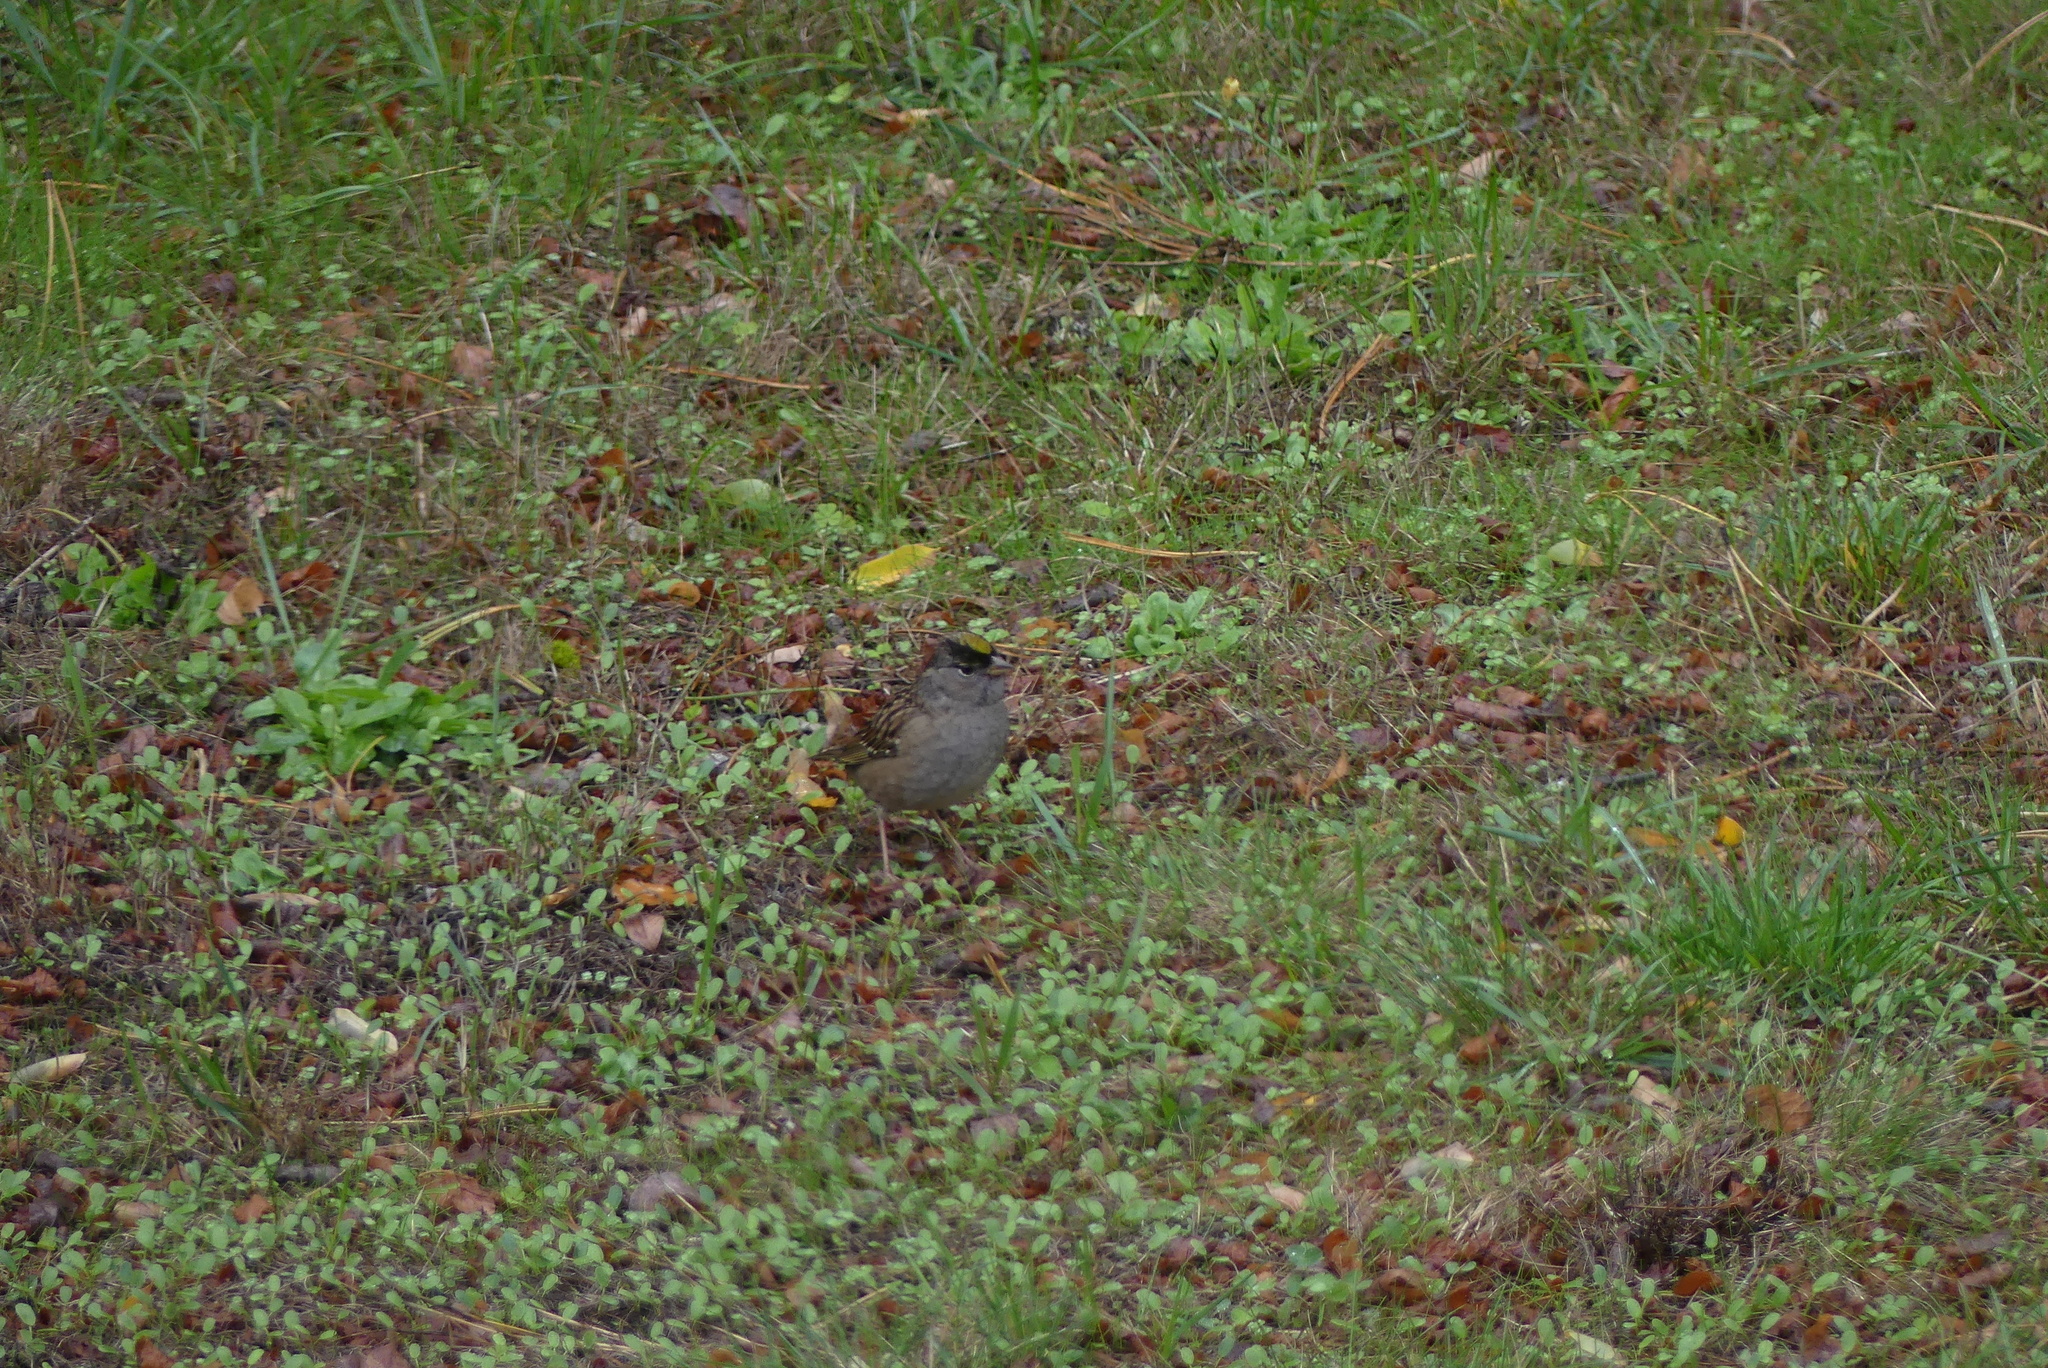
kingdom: Animalia
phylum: Chordata
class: Aves
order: Passeriformes
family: Passerellidae
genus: Zonotrichia
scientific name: Zonotrichia atricapilla
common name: Golden-crowned sparrow
